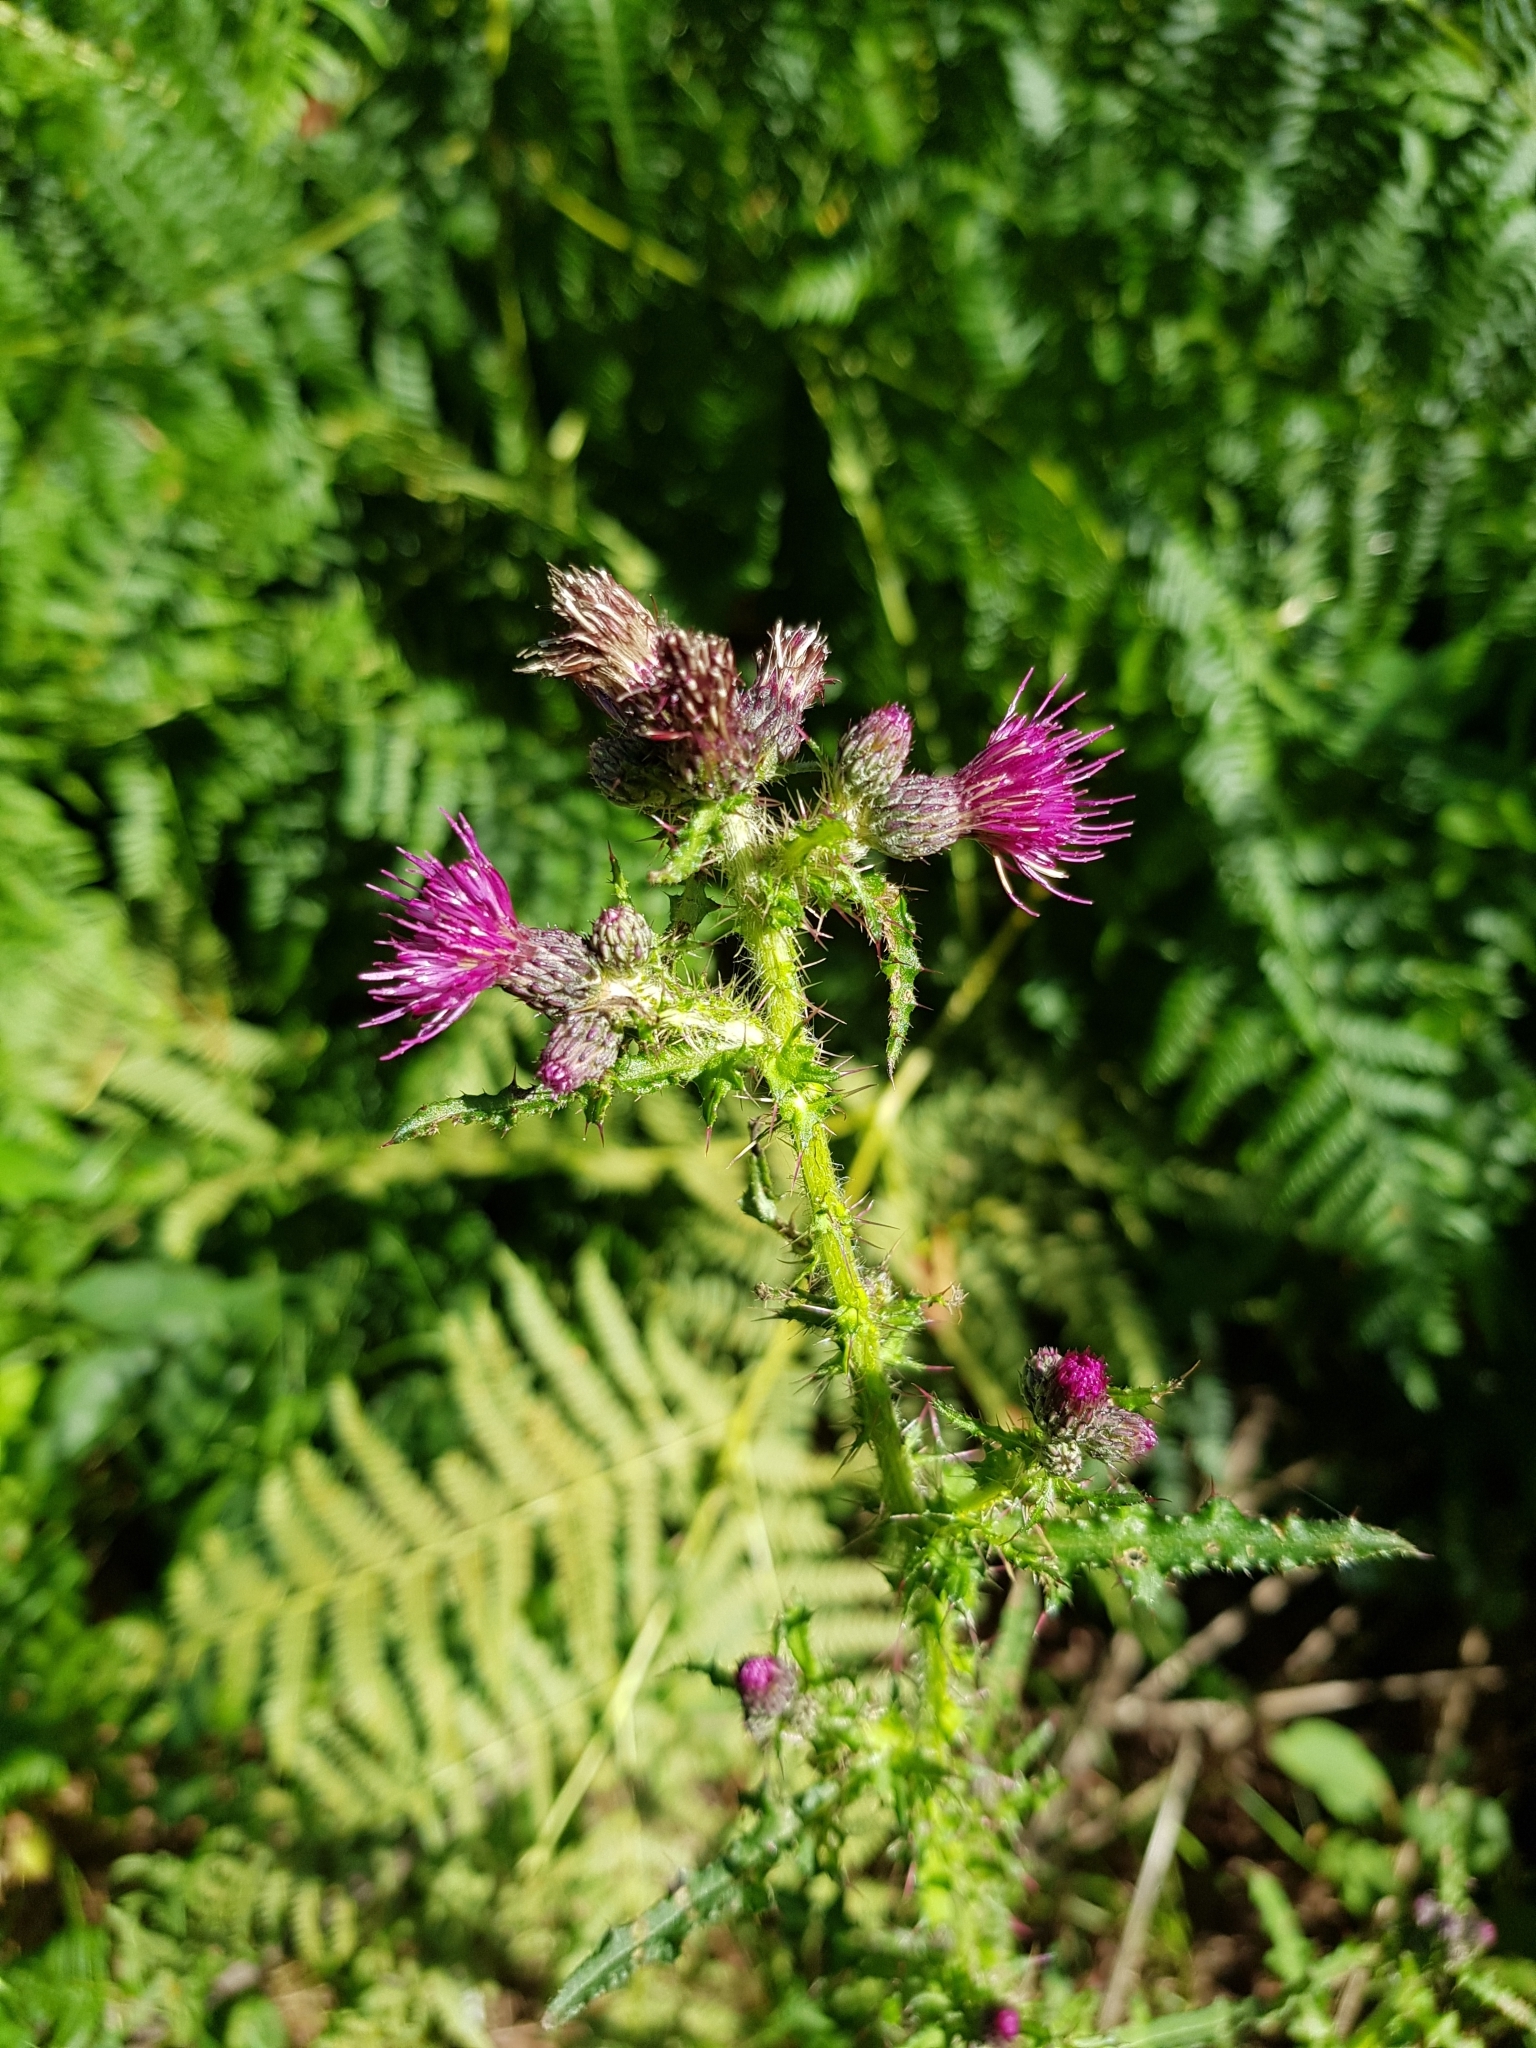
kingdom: Plantae
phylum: Tracheophyta
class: Magnoliopsida
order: Asterales
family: Asteraceae
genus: Cirsium
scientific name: Cirsium palustre
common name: Marsh thistle
